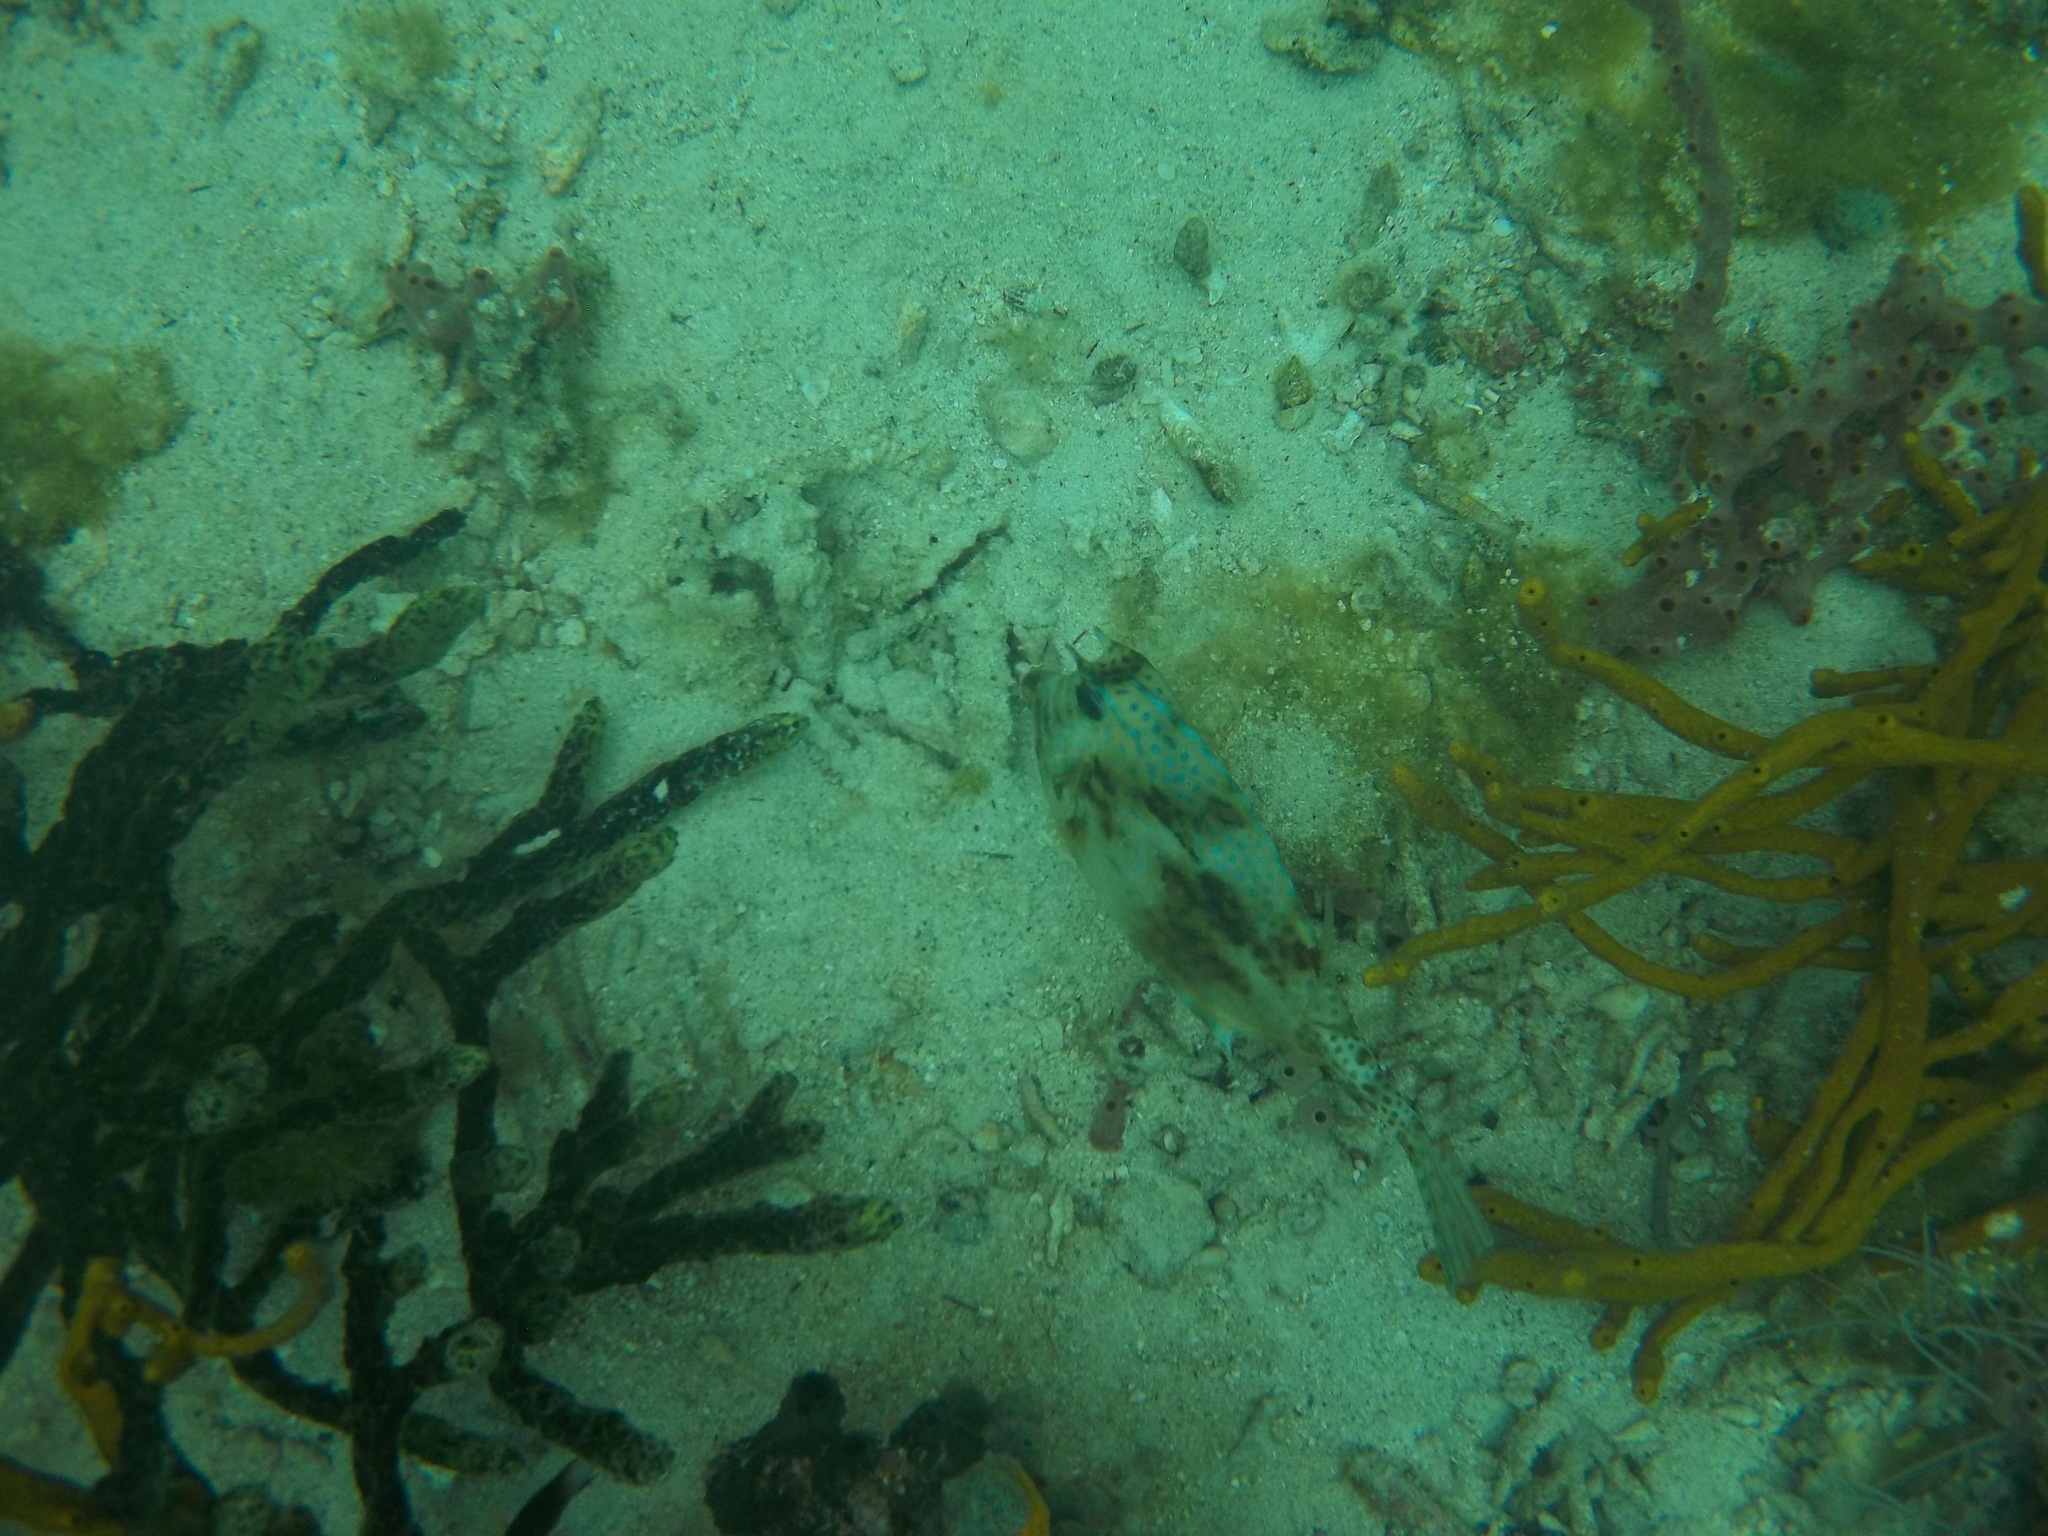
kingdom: Animalia
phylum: Chordata
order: Tetraodontiformes
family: Ostraciidae
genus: Acanthostracion
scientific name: Acanthostracion quadricornis
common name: Scrawled cowfish
